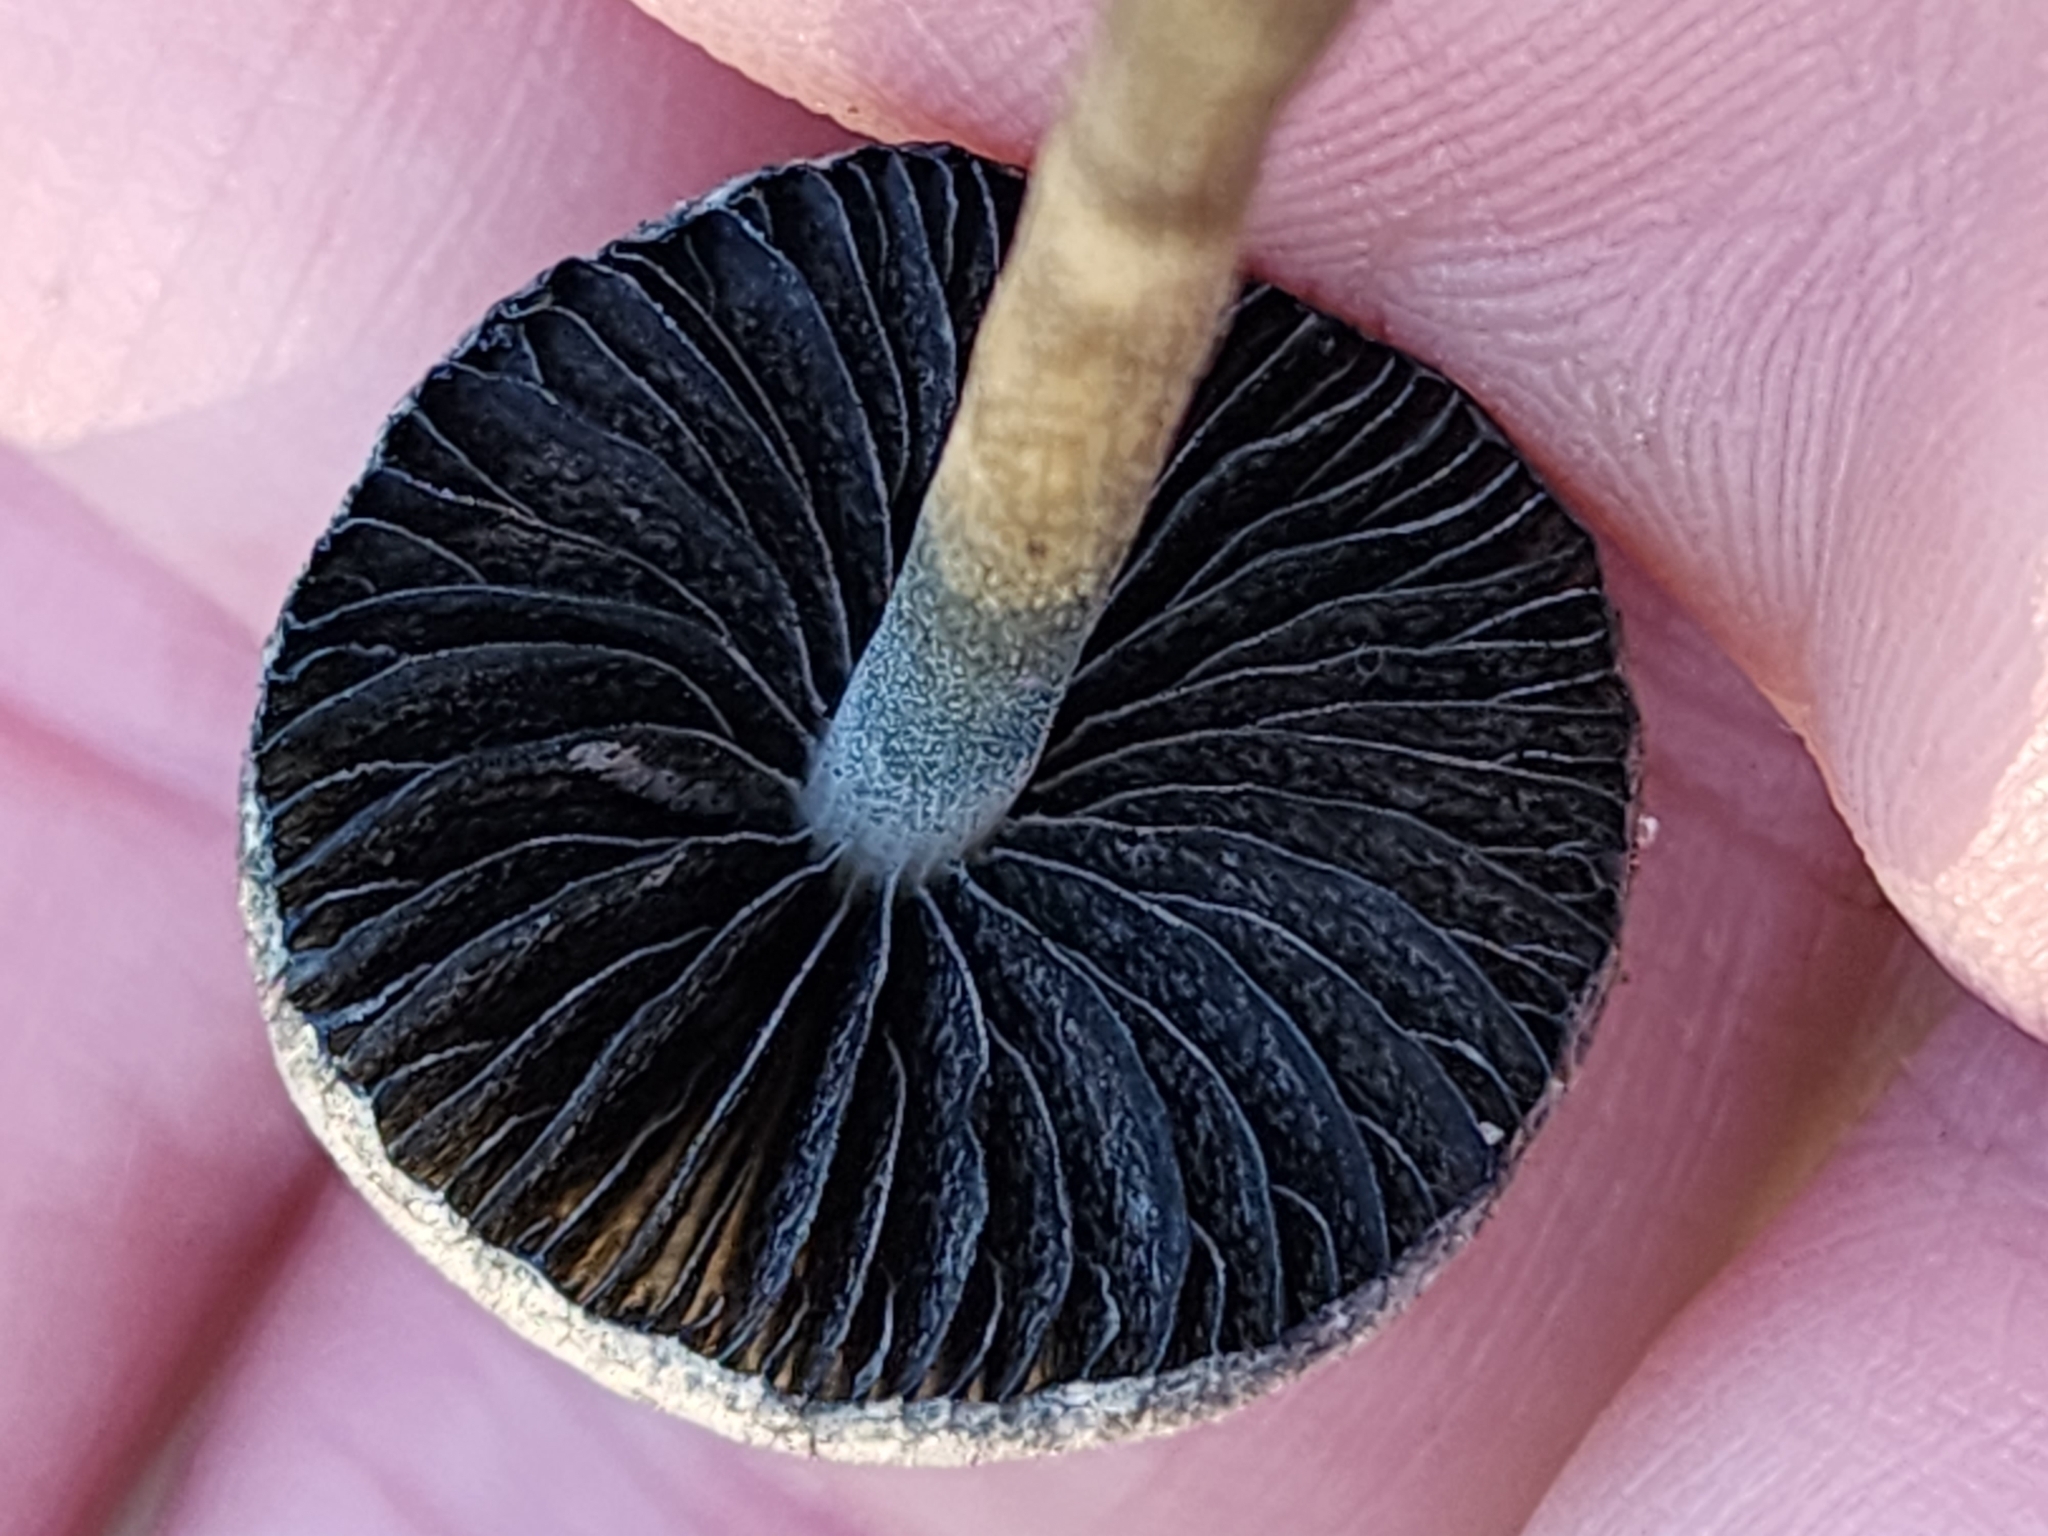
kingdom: Fungi
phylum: Basidiomycota
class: Agaricomycetes
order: Agaricales
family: Bolbitiaceae
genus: Panaeolus
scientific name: Panaeolus cyanescens
